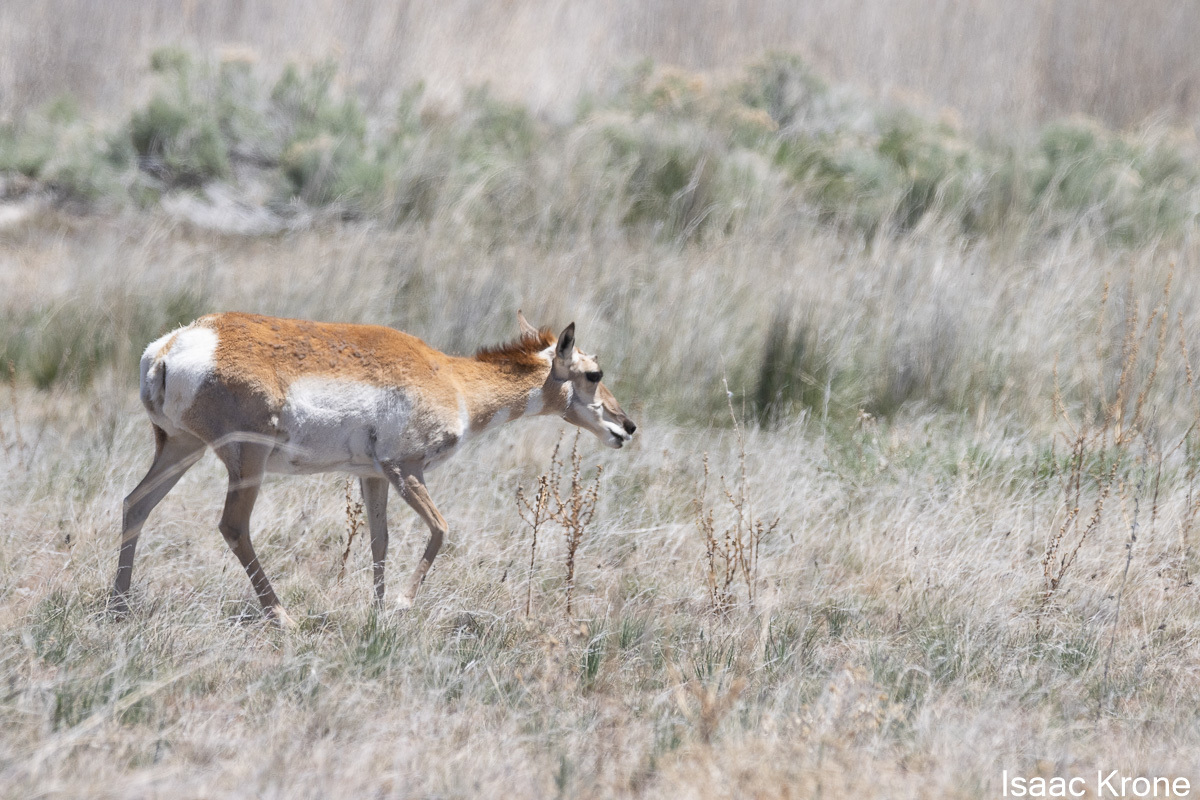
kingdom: Animalia
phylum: Chordata
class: Mammalia
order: Artiodactyla
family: Antilocapridae
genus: Antilocapra
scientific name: Antilocapra americana
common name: Pronghorn
